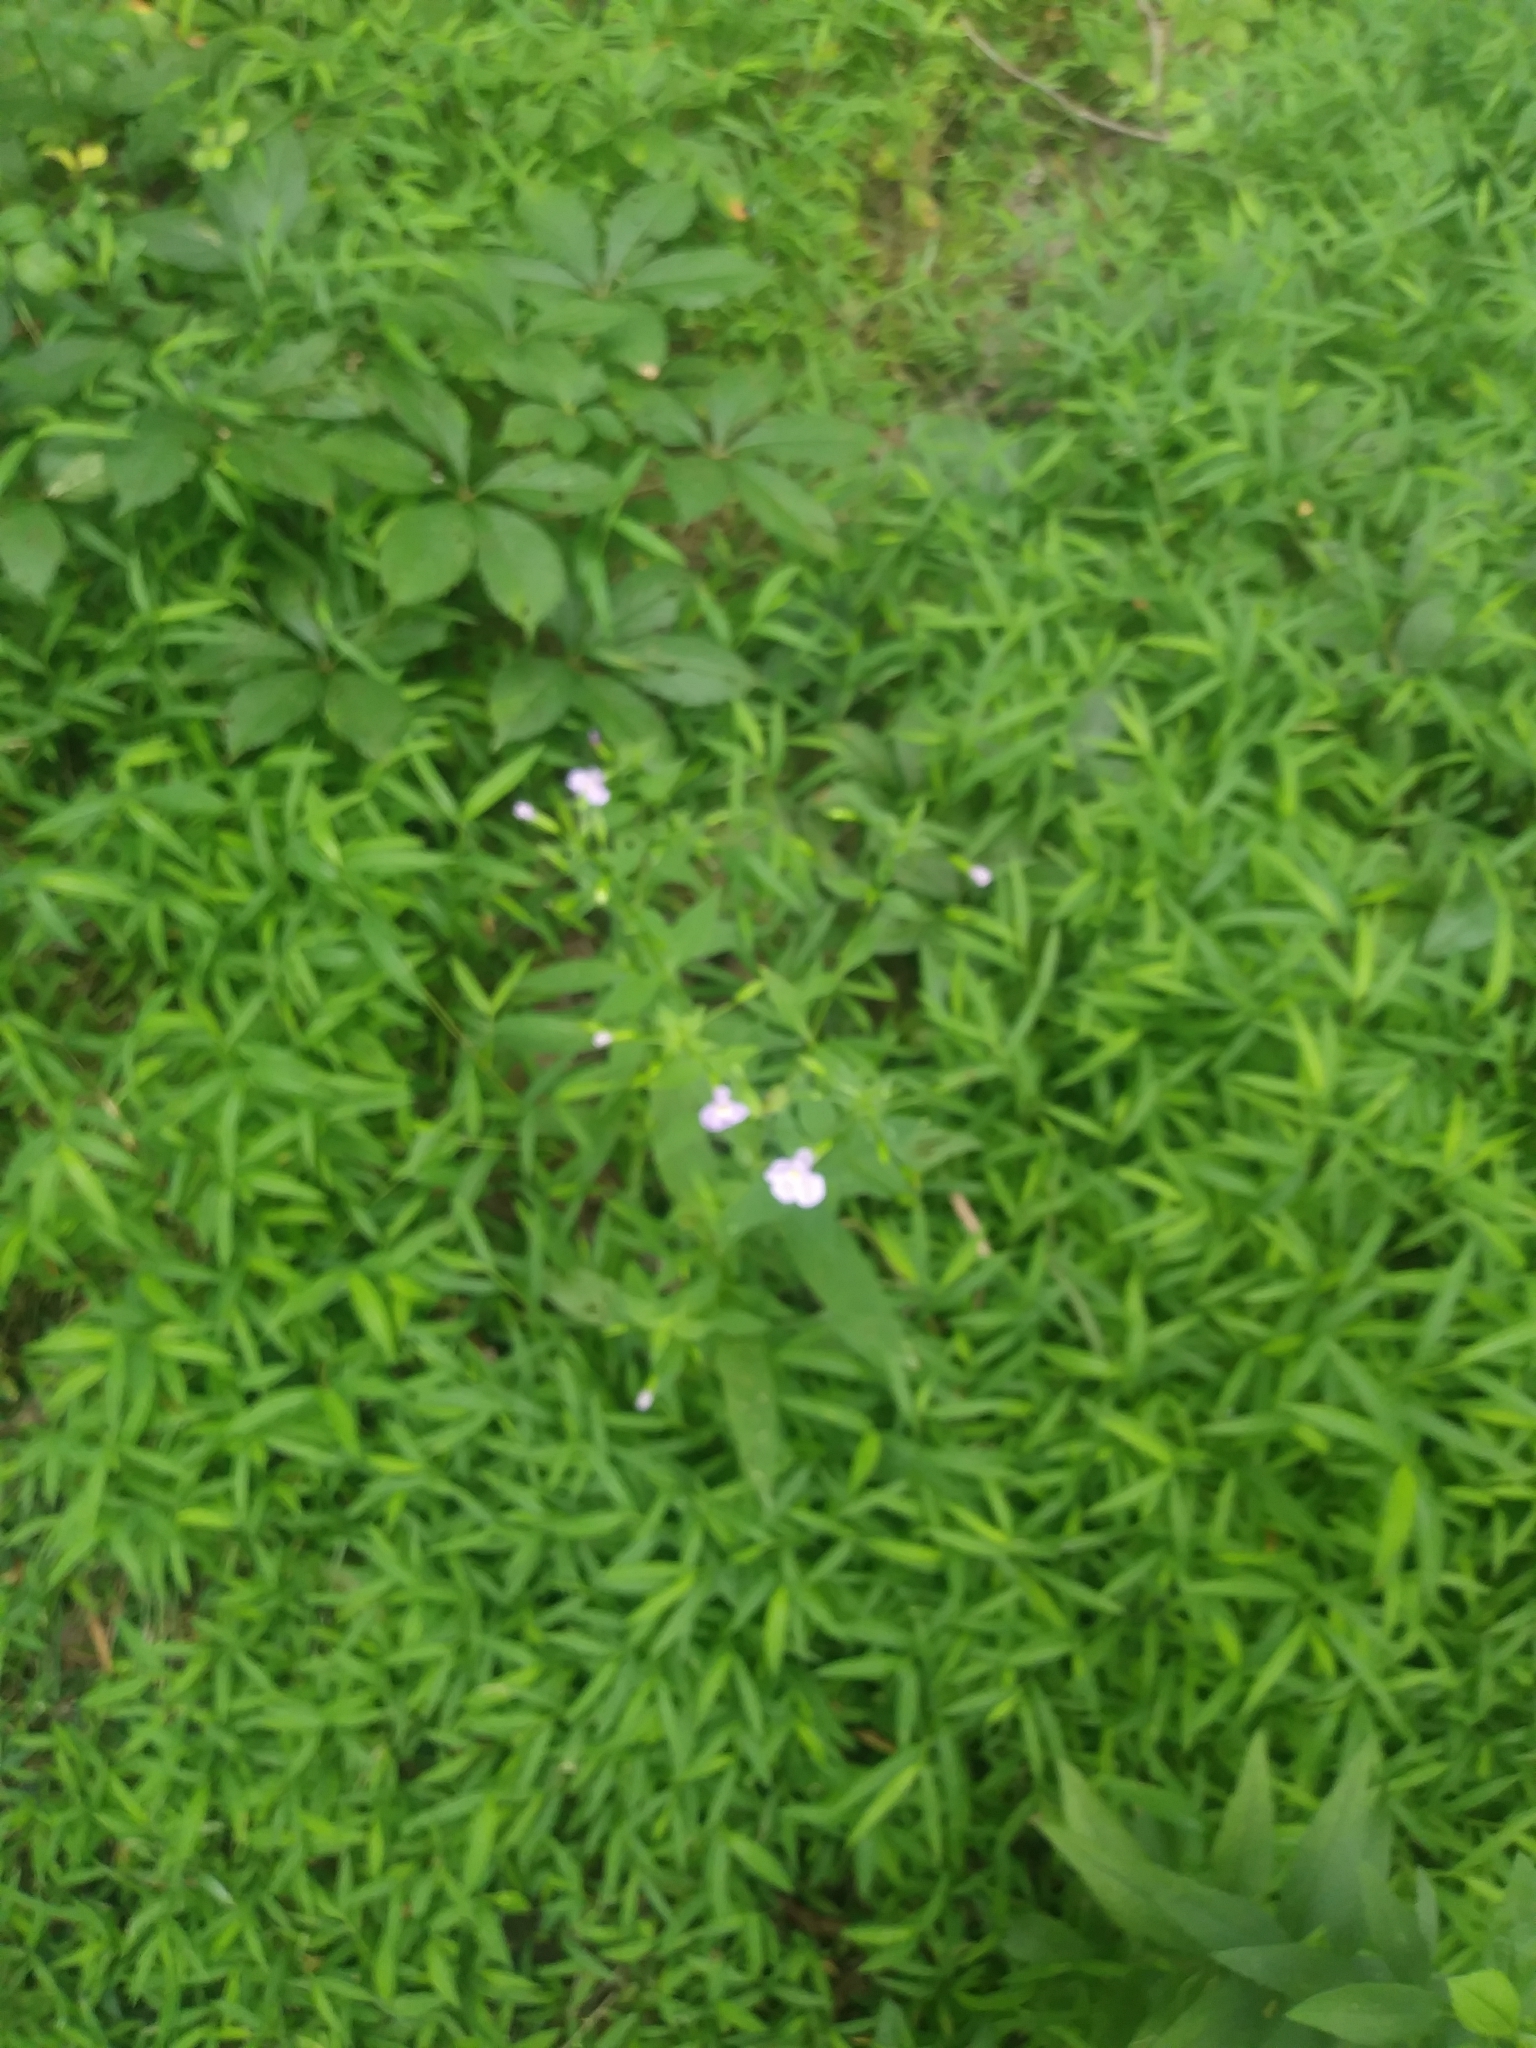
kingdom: Plantae
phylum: Tracheophyta
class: Magnoliopsida
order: Lamiales
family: Phrymaceae
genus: Mimulus
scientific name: Mimulus ringens
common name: Allegheny monkeyflower
